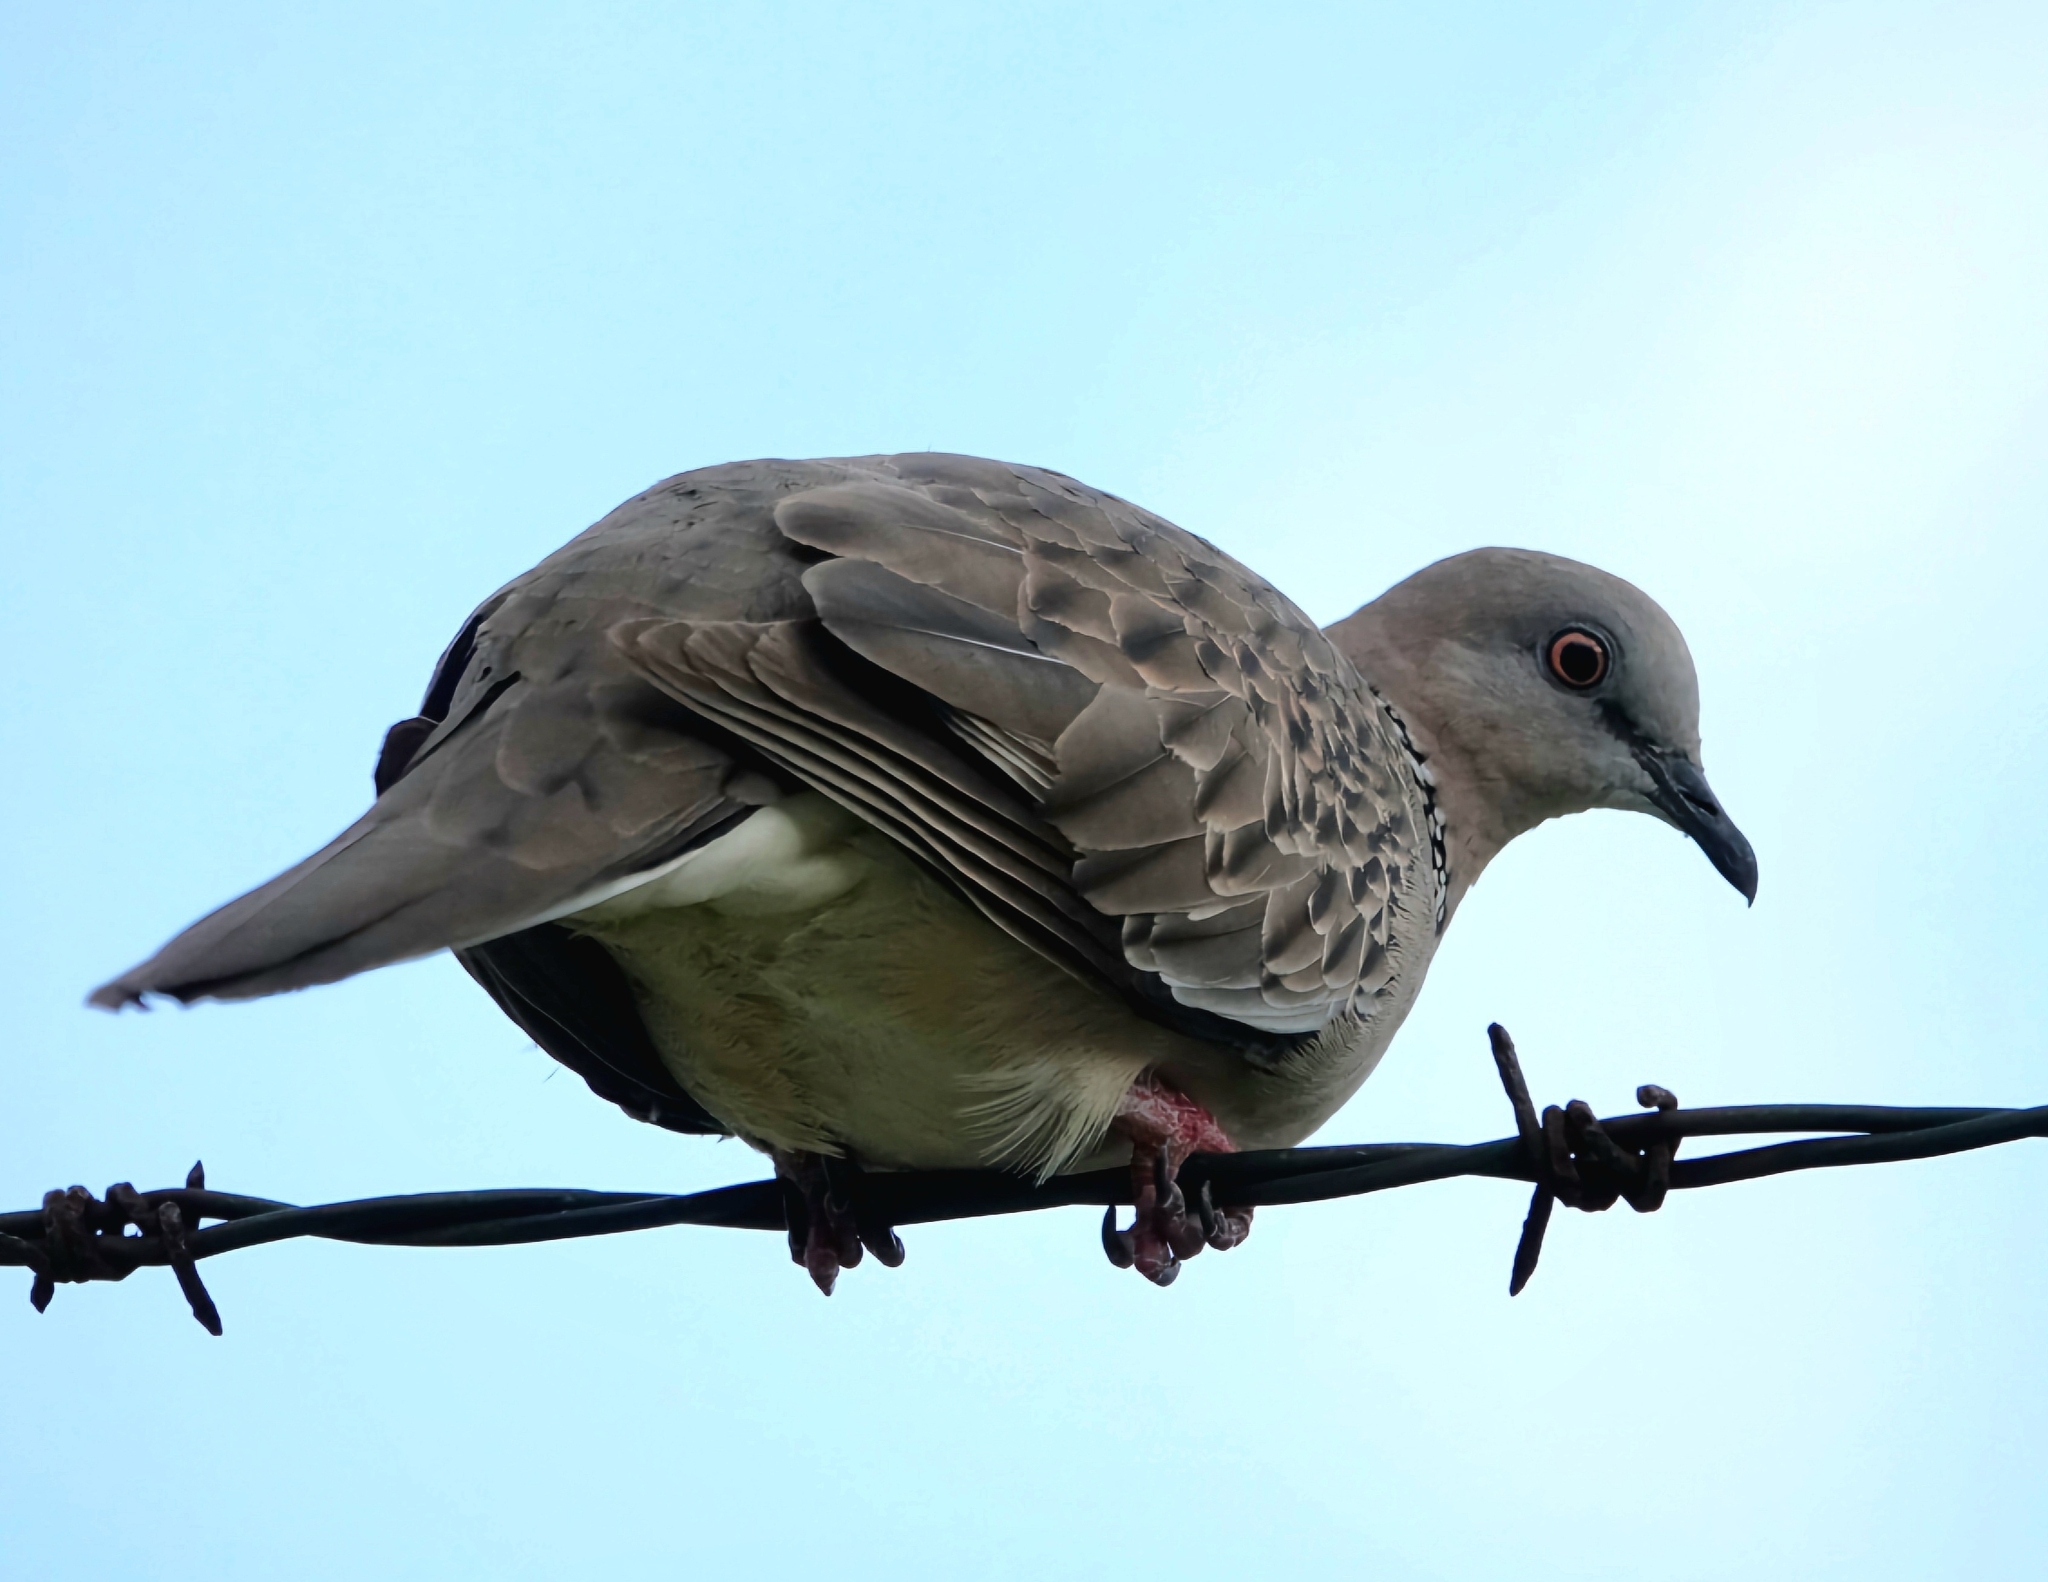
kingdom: Animalia
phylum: Chordata
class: Aves
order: Columbiformes
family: Columbidae
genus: Spilopelia
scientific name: Spilopelia chinensis
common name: Spotted dove
